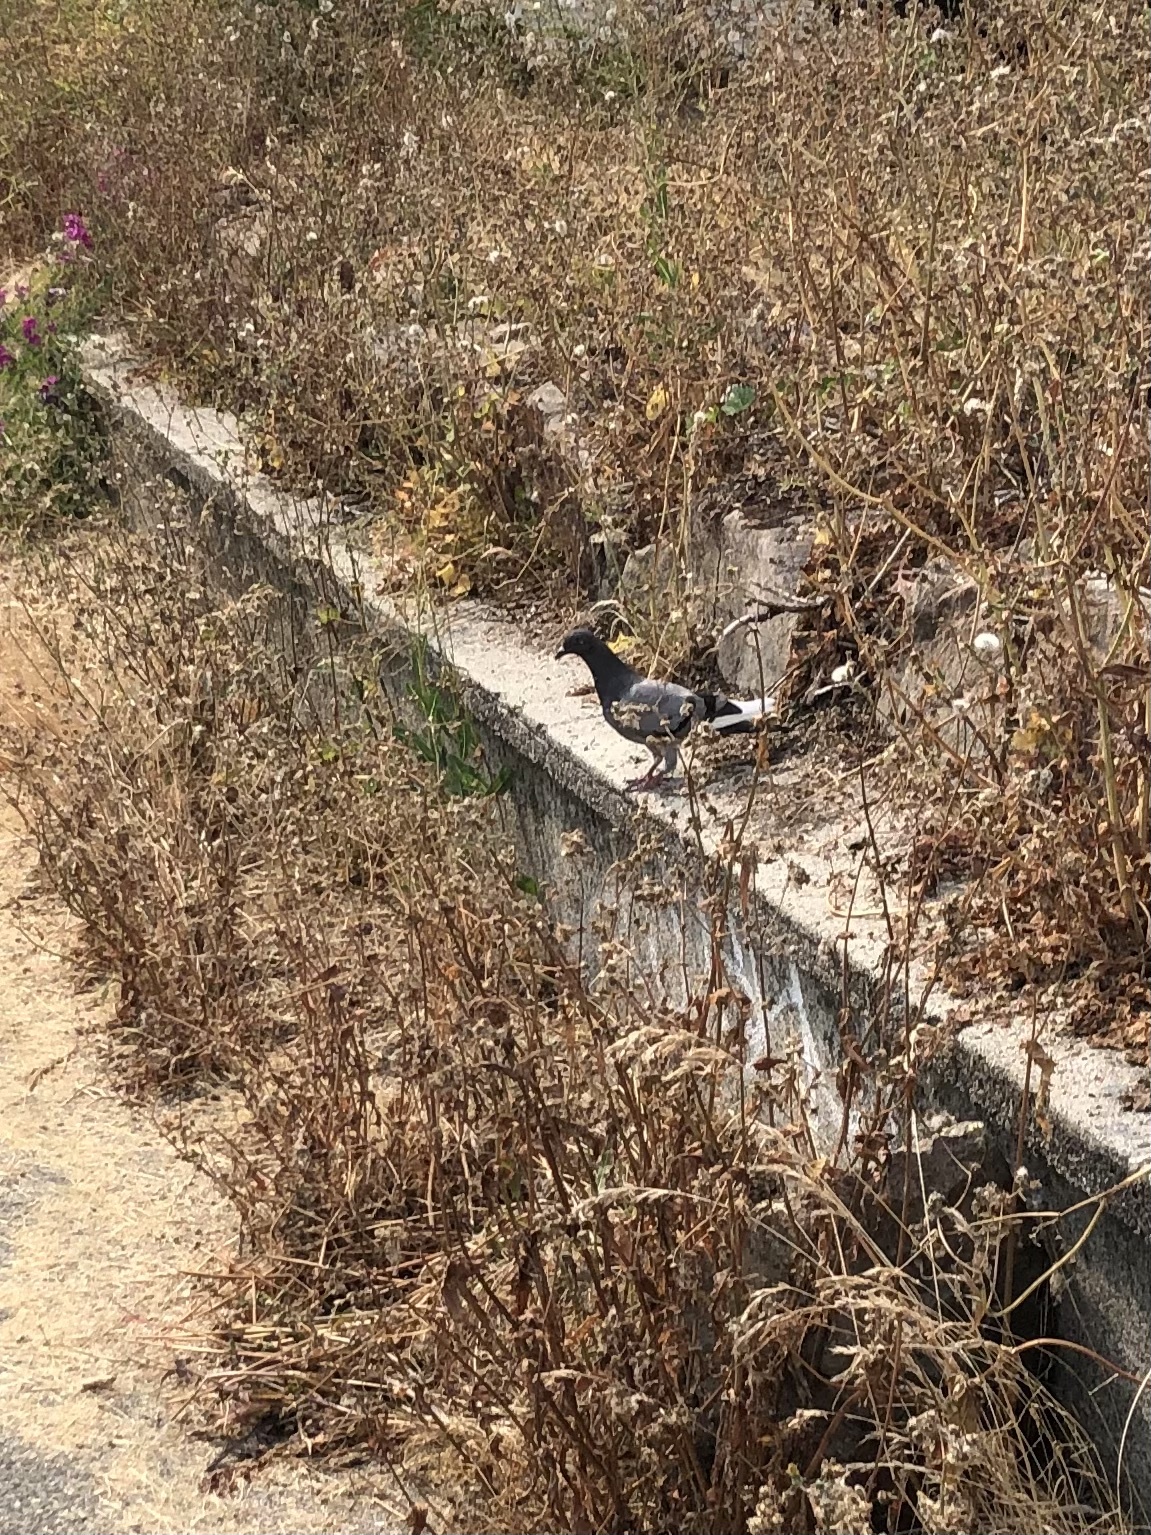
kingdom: Animalia
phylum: Chordata
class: Aves
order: Columbiformes
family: Columbidae
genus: Columba
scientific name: Columba livia
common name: Rock pigeon
